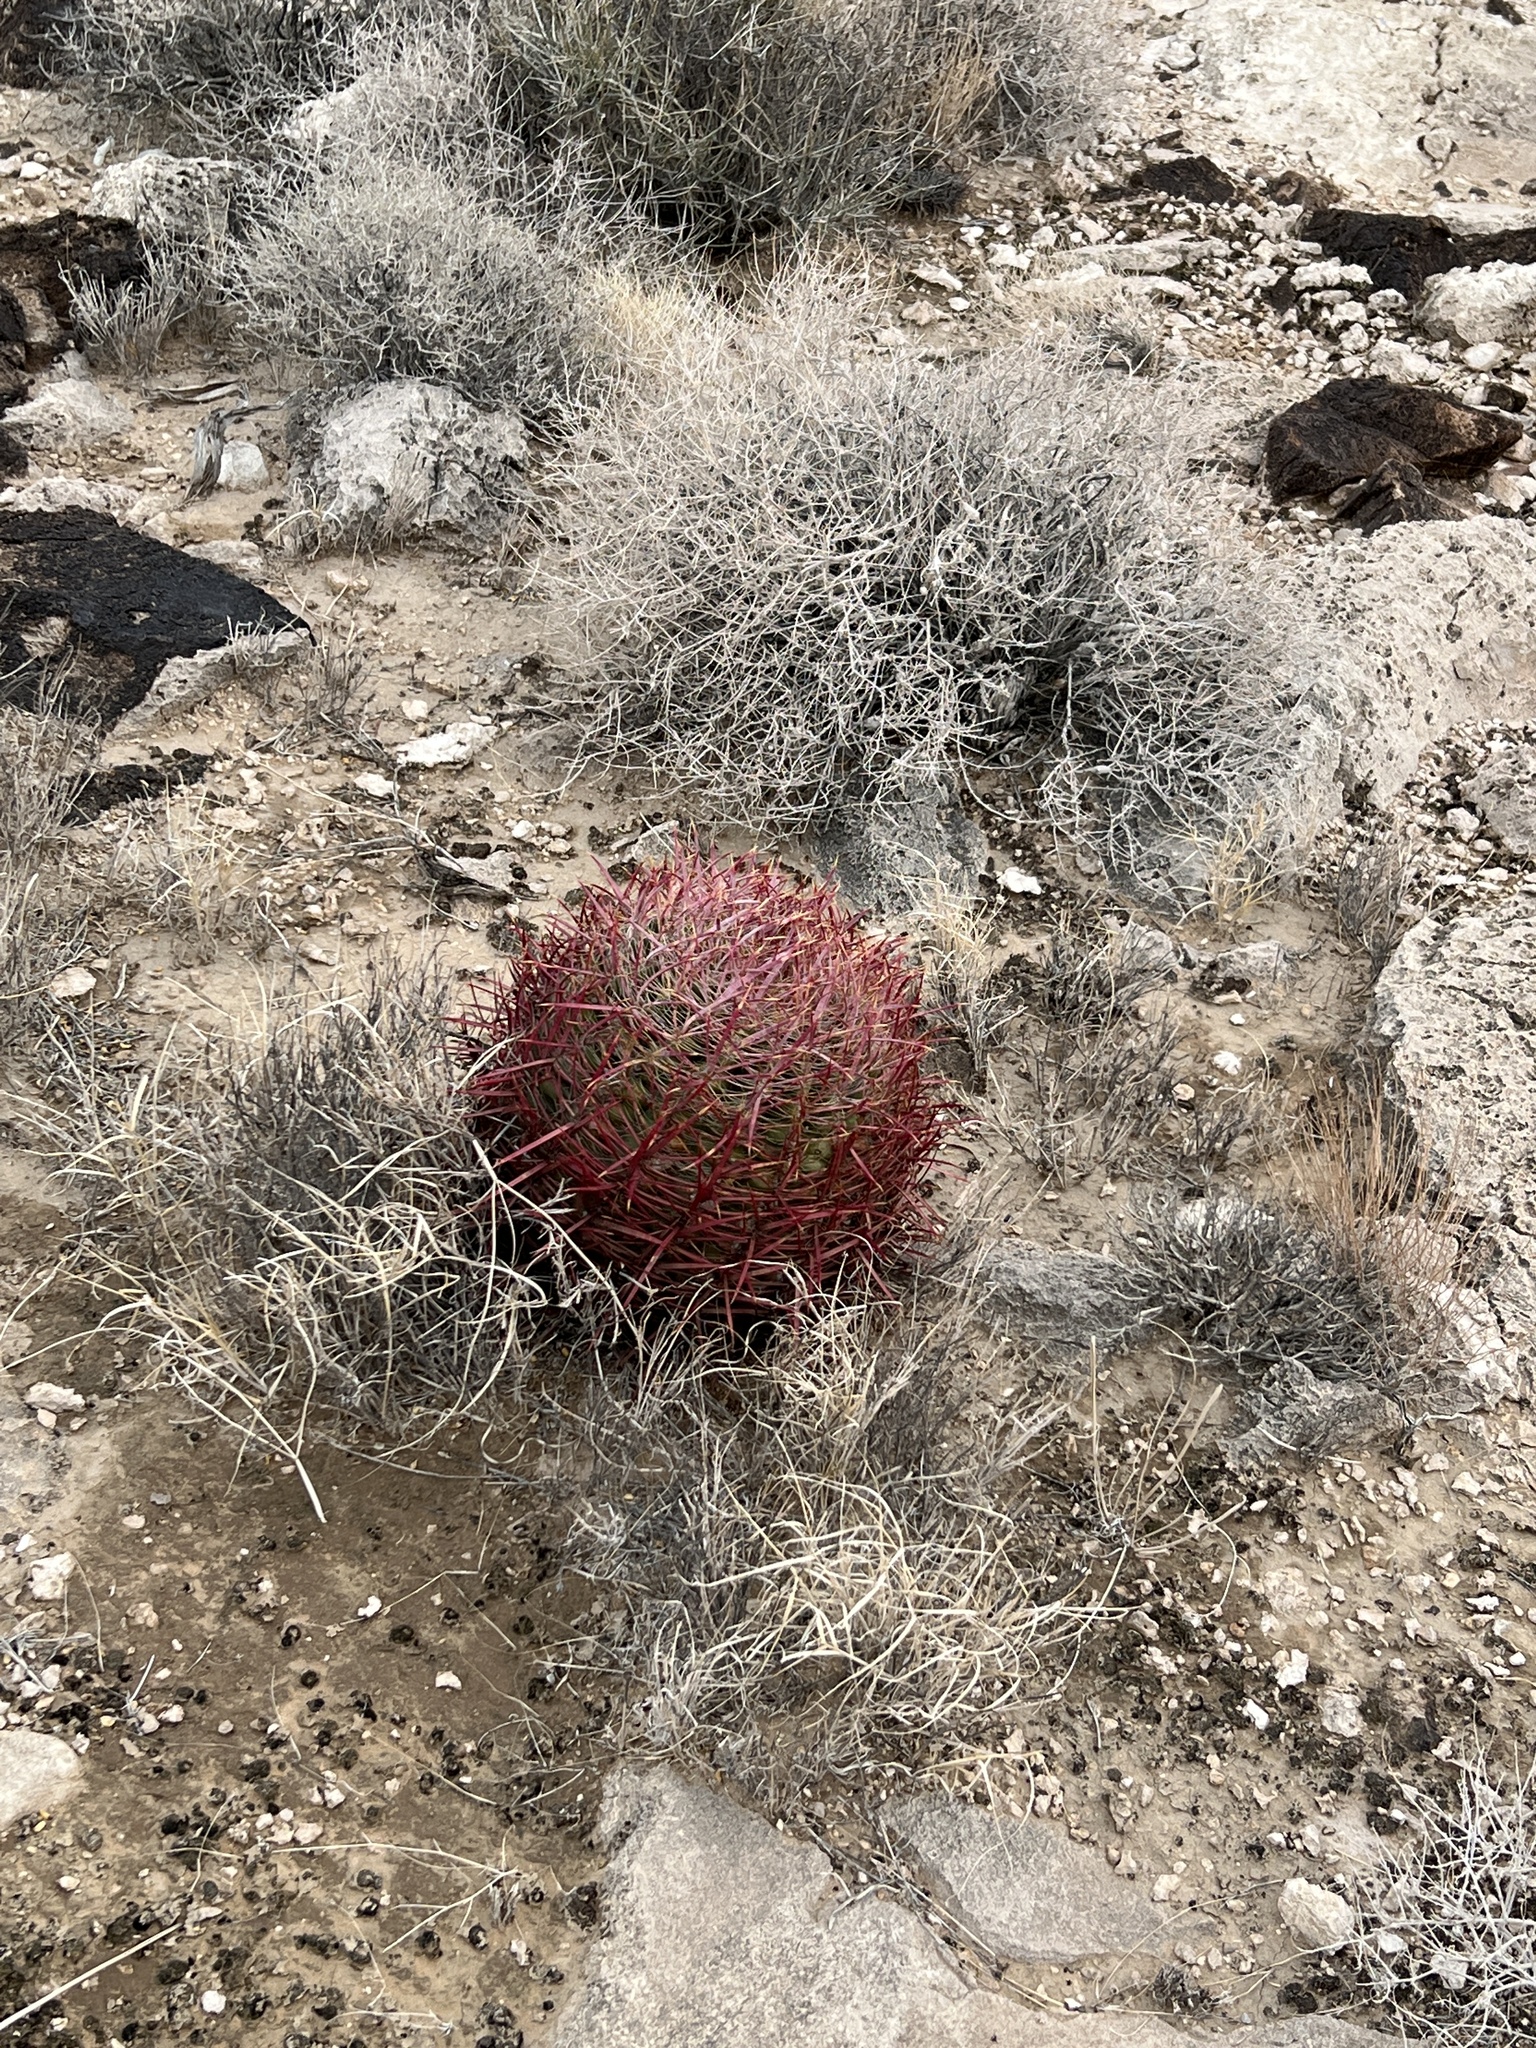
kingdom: Plantae
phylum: Tracheophyta
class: Magnoliopsida
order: Caryophyllales
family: Cactaceae
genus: Ferocactus
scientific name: Ferocactus cylindraceus
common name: California barrel cactus
